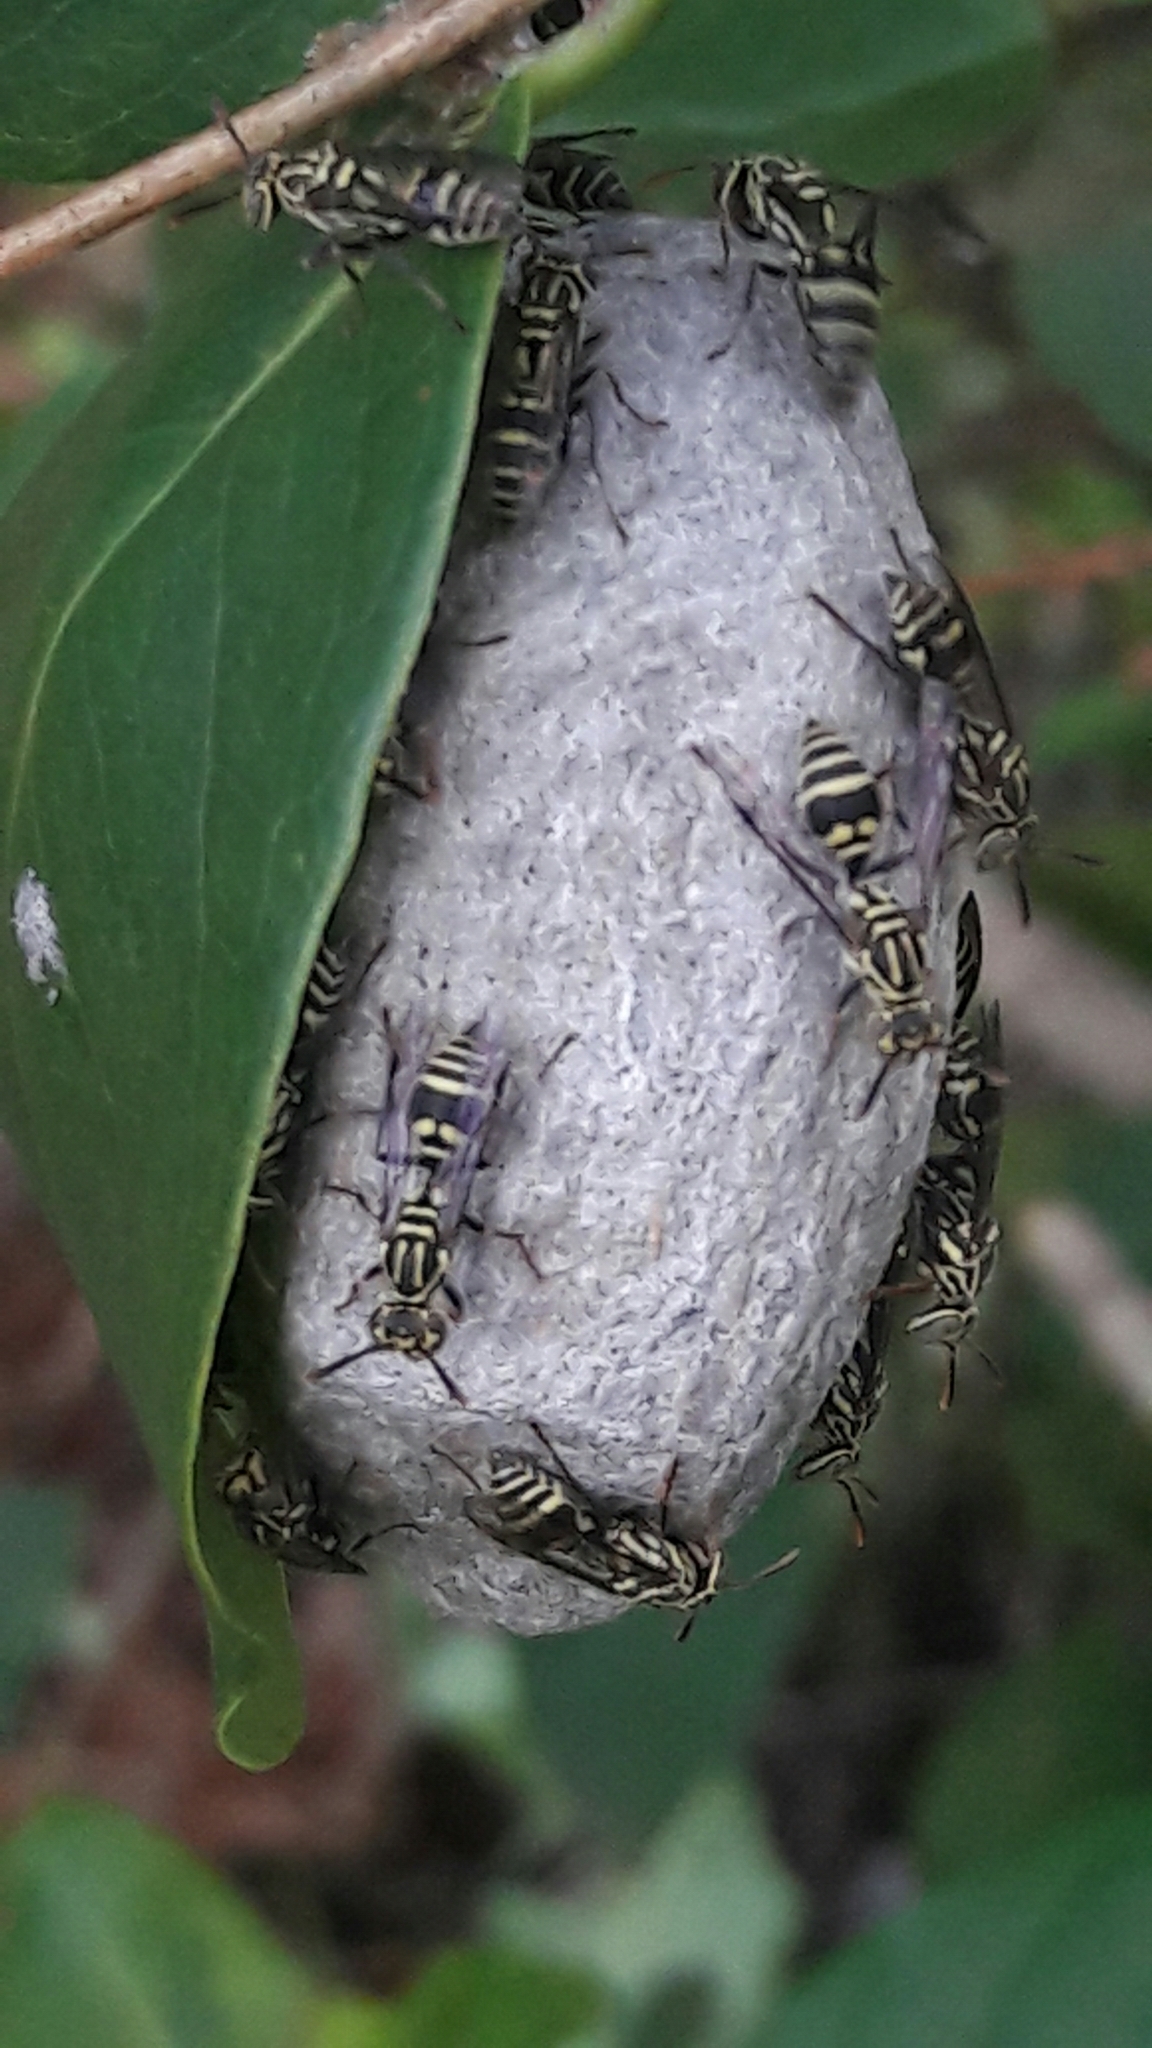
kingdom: Animalia
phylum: Arthropoda
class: Insecta
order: Hymenoptera
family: Vespidae
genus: Protopolybia
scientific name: Protopolybia exigua
